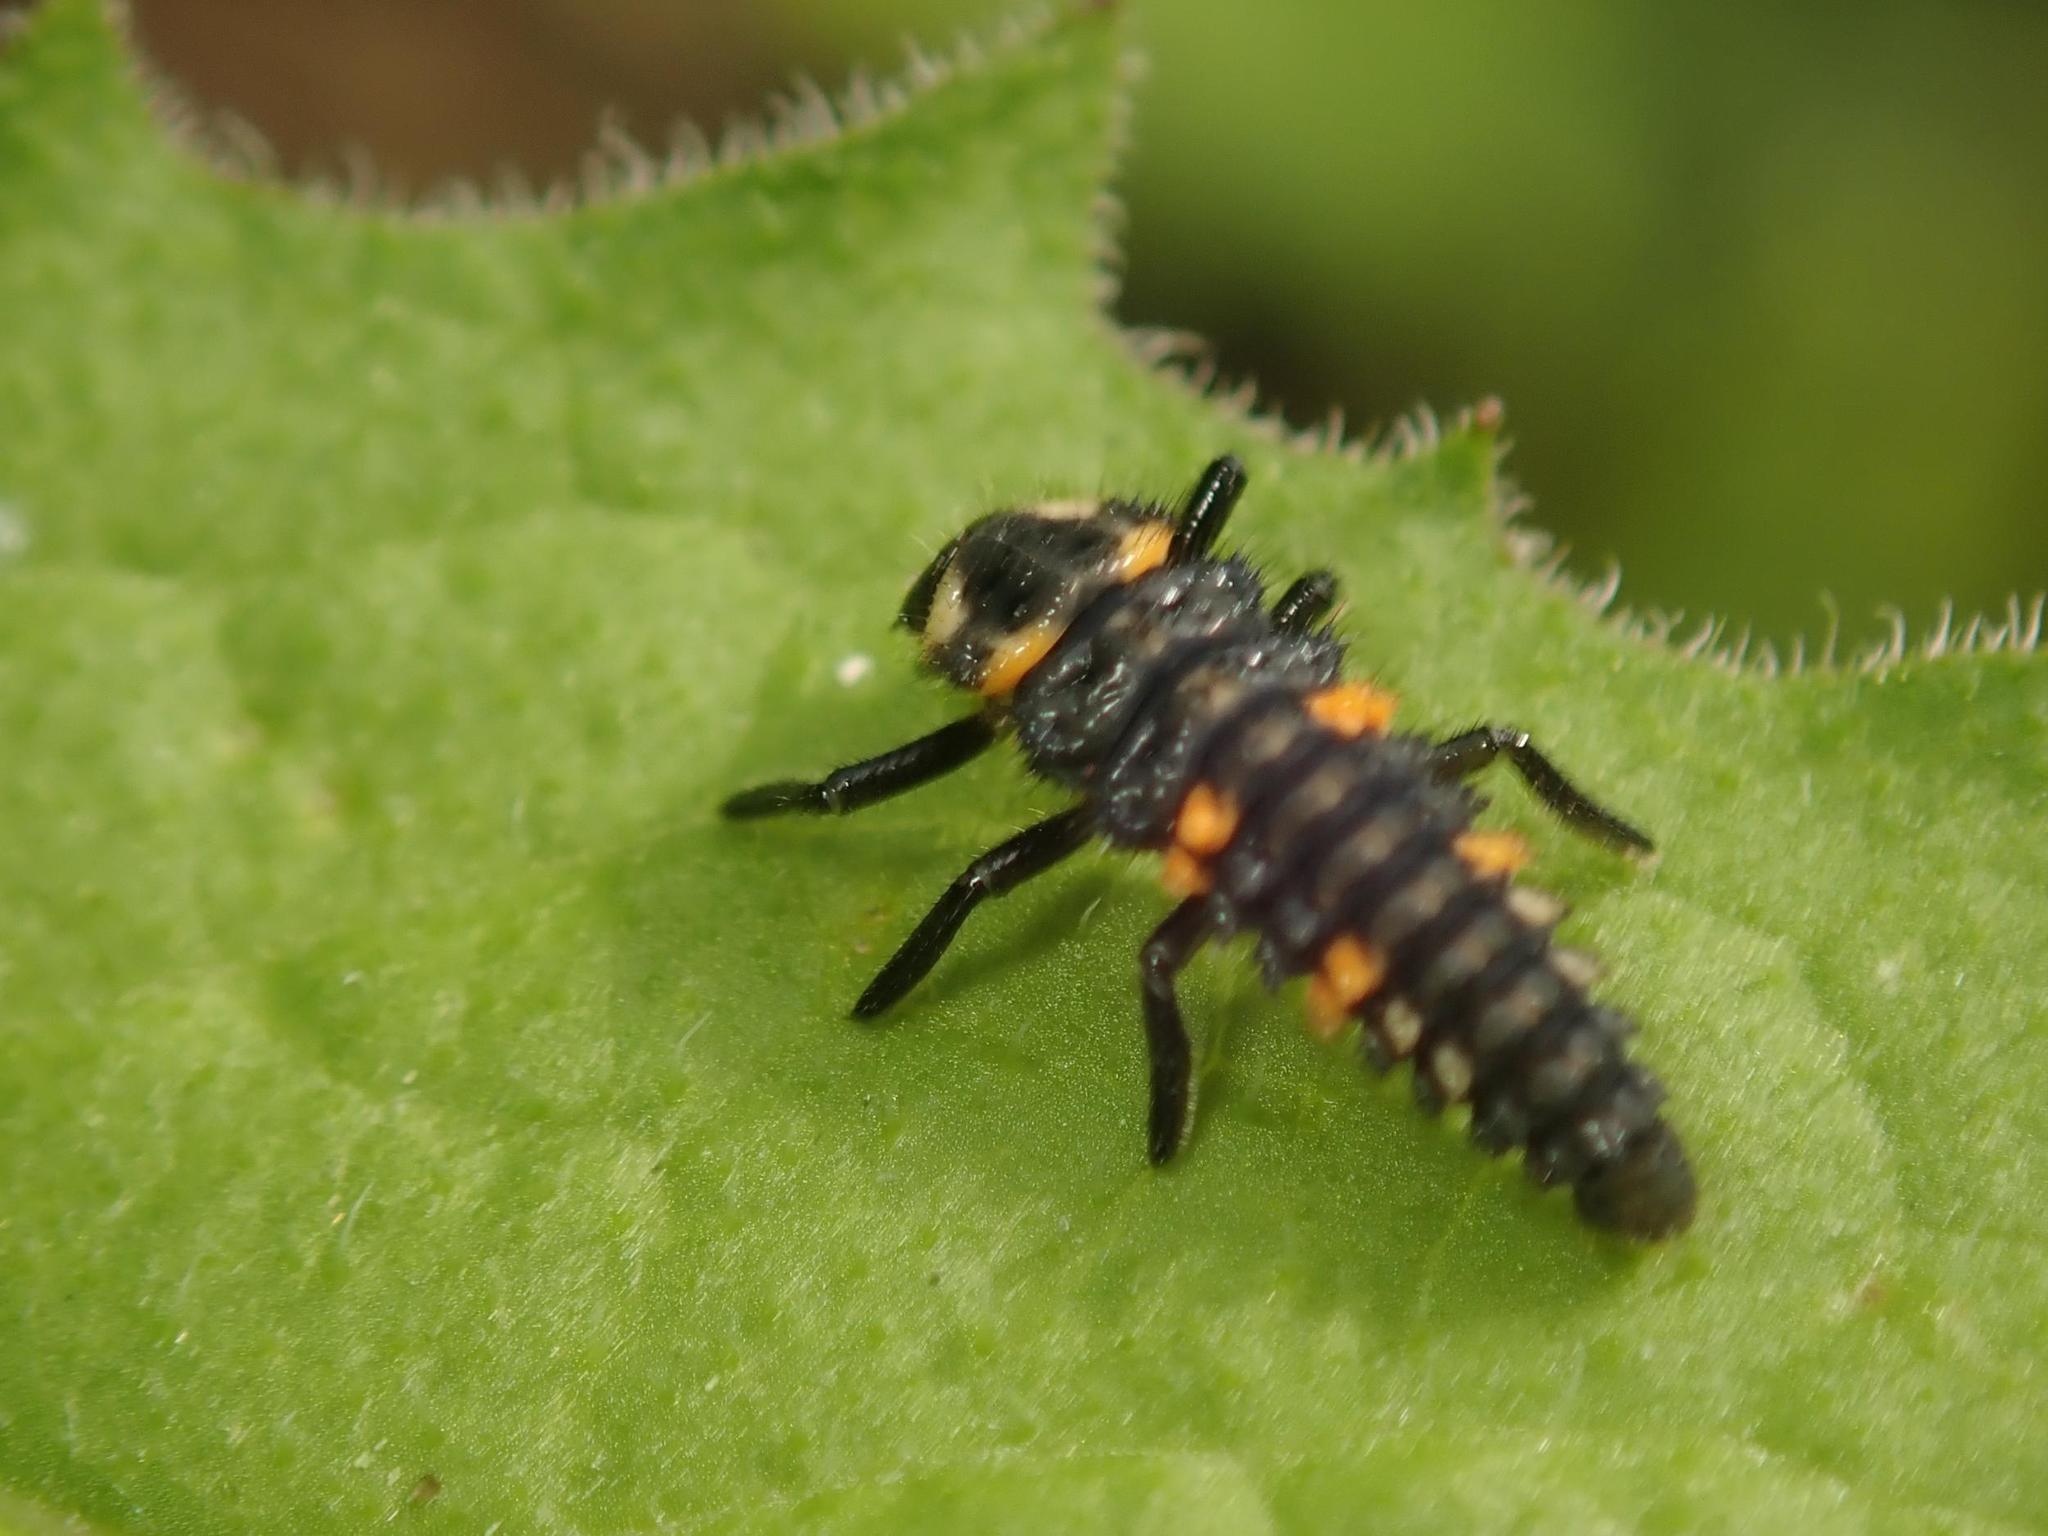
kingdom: Animalia
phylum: Arthropoda
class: Insecta
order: Coleoptera
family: Coccinellidae
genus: Coccinella
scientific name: Coccinella septempunctata
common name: Sevenspotted lady beetle
